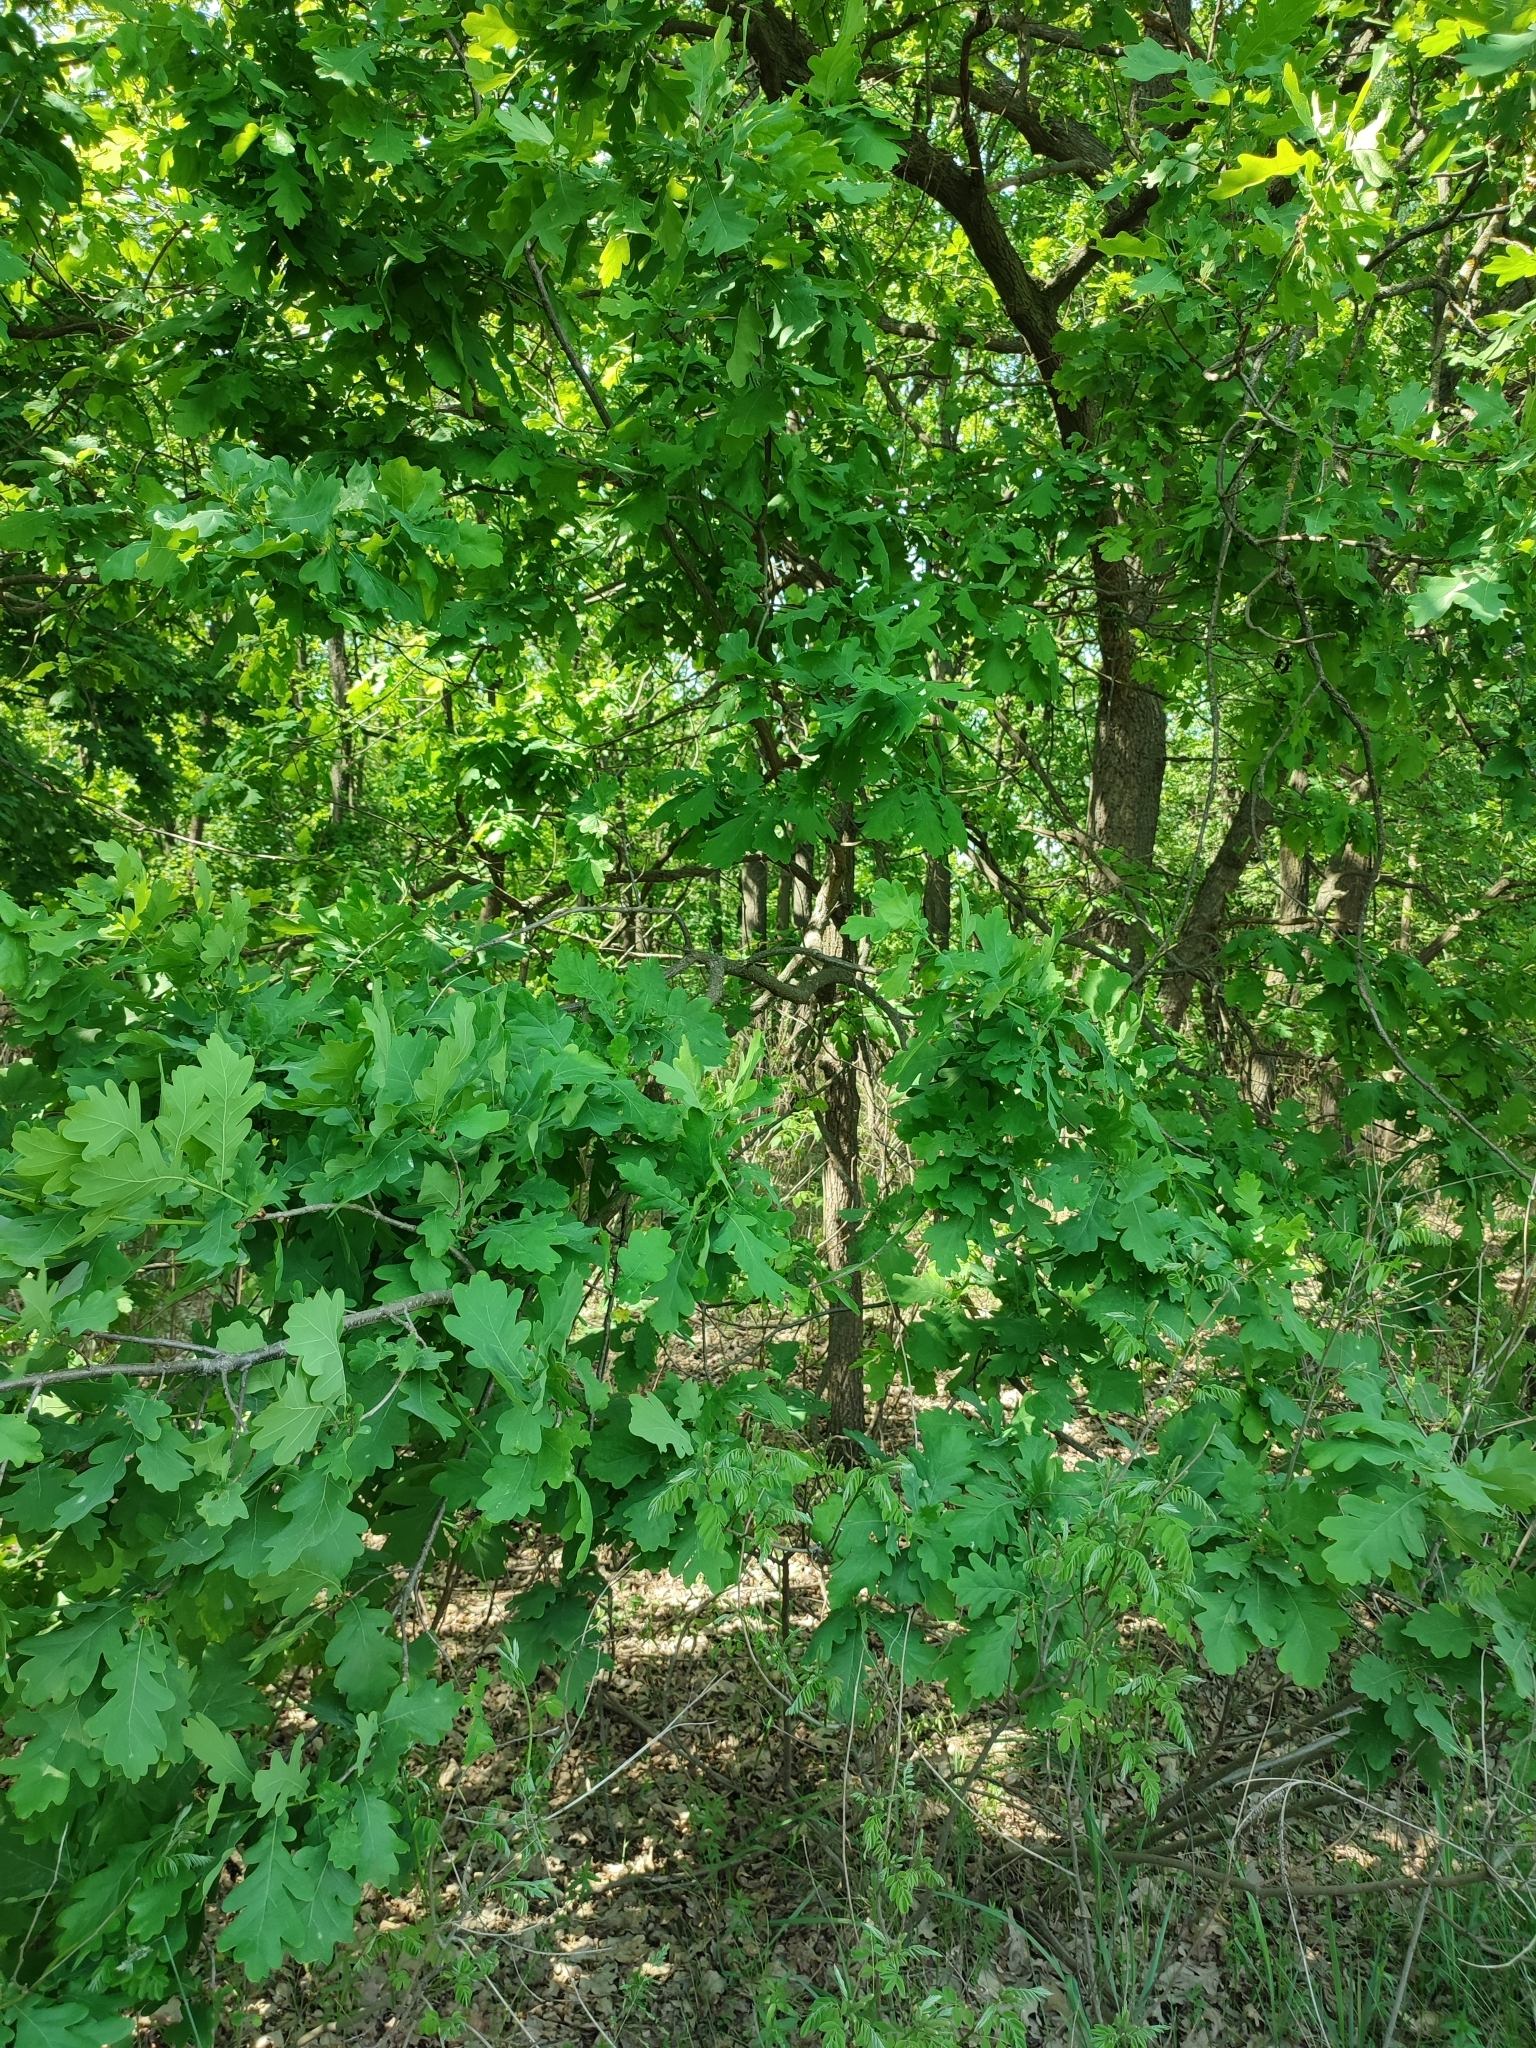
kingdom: Plantae
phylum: Tracheophyta
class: Magnoliopsida
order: Fagales
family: Fagaceae
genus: Quercus
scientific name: Quercus robur
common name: Pedunculate oak
